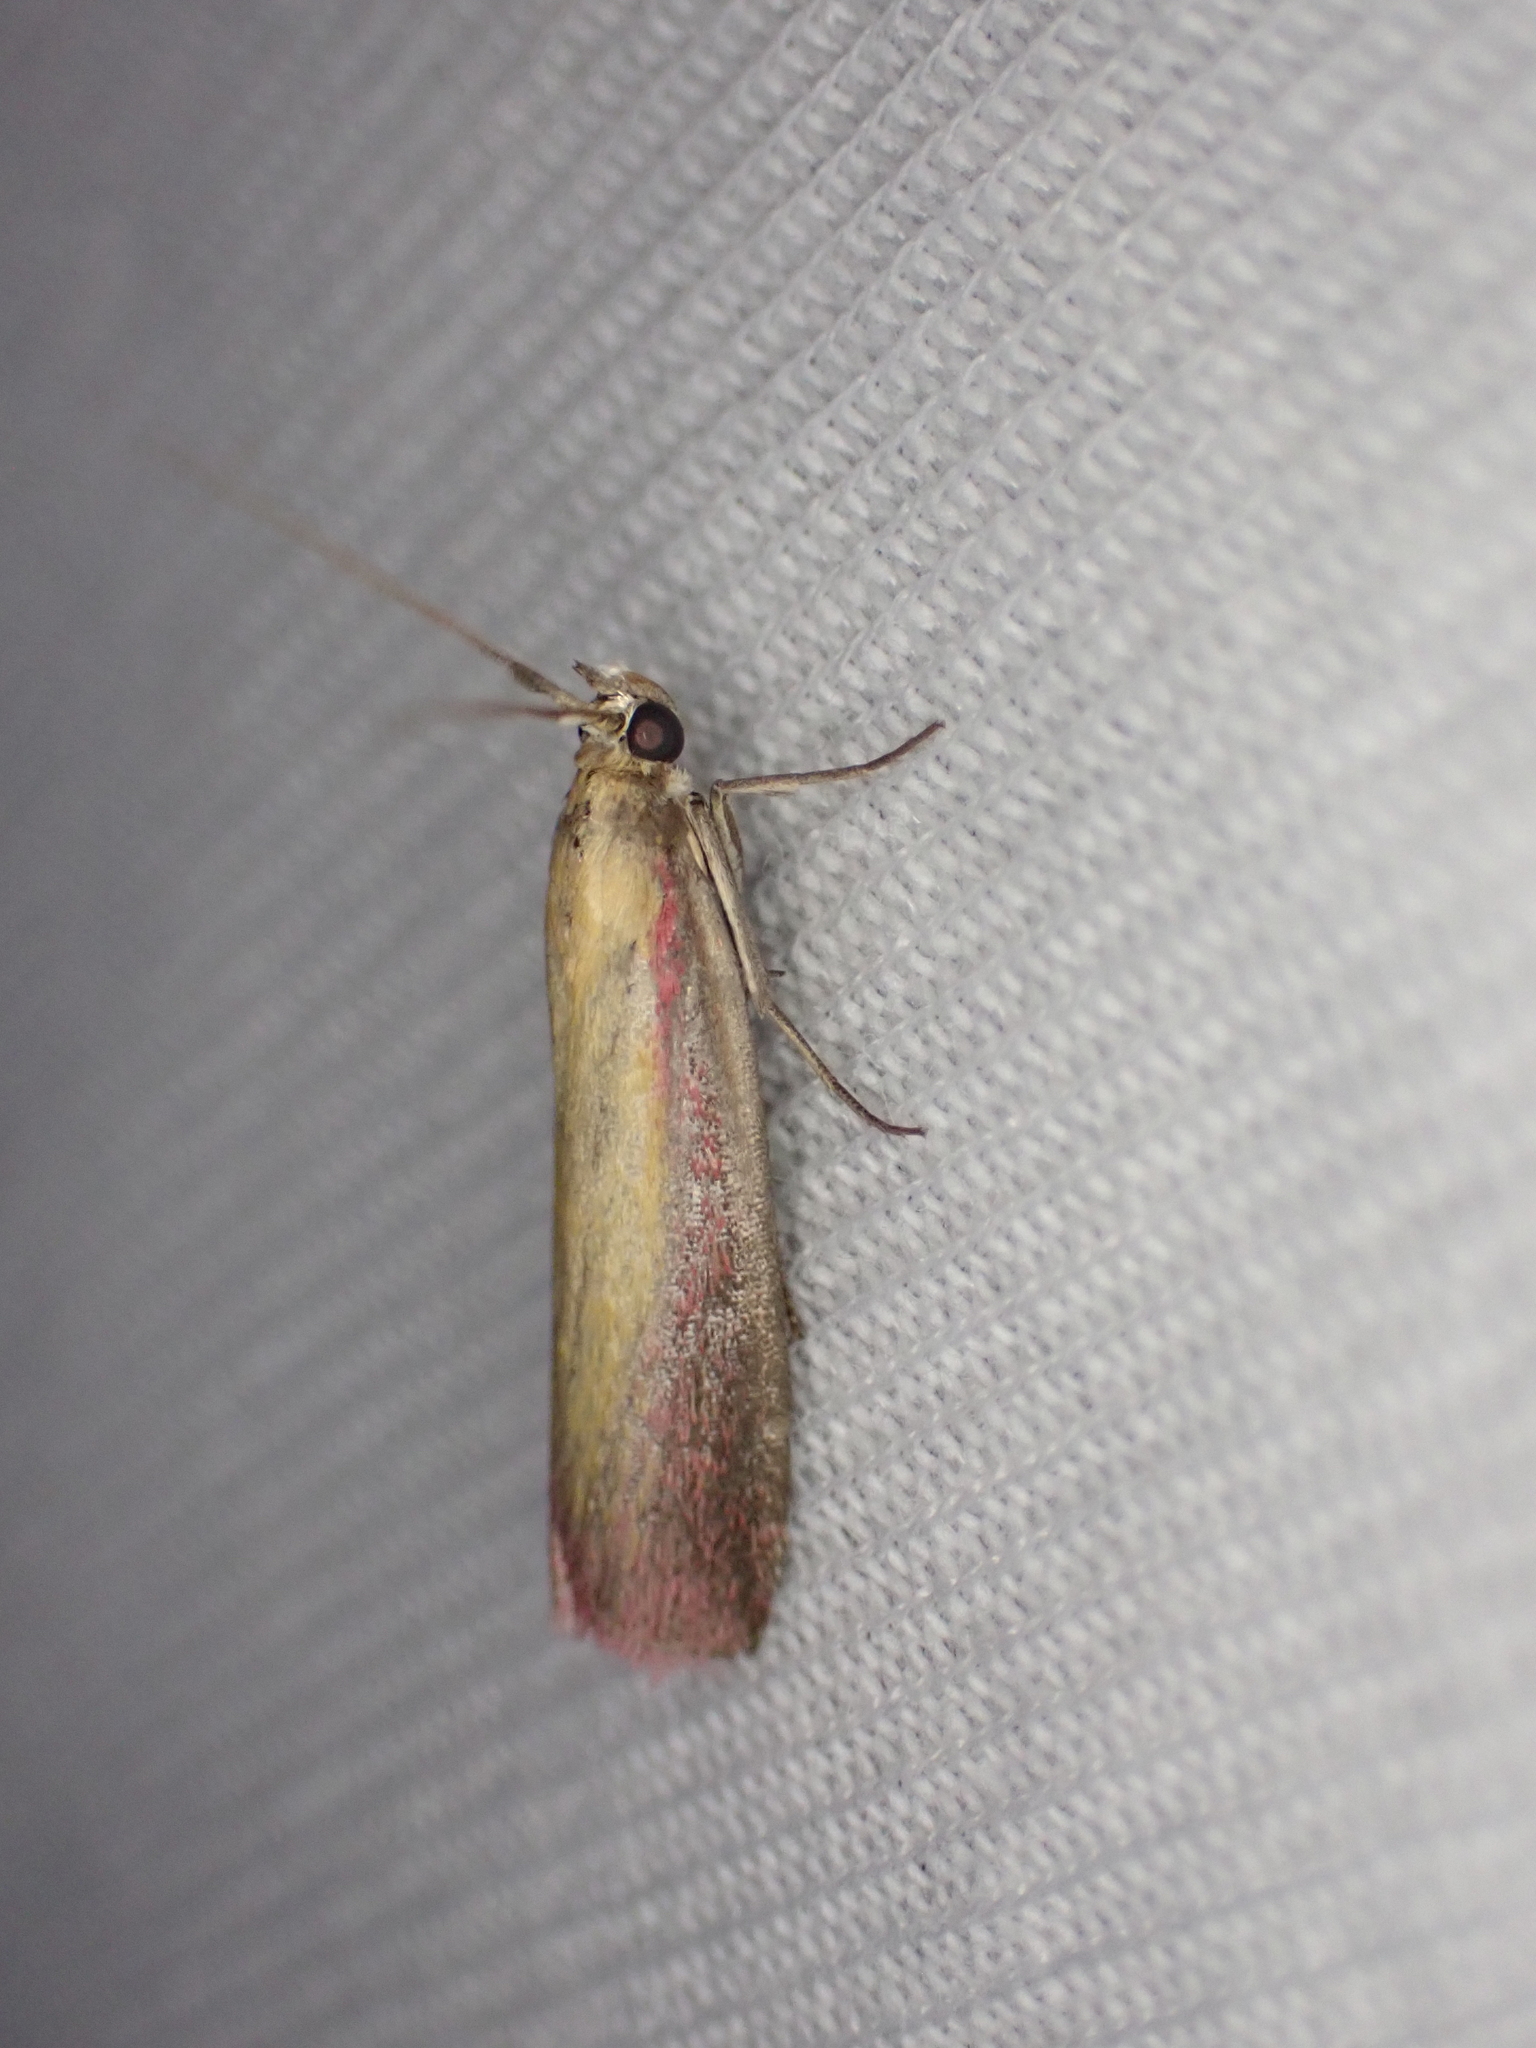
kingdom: Animalia
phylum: Arthropoda
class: Insecta
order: Lepidoptera
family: Pyralidae
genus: Oncocera
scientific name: Oncocera semirubella
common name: Rosy-striped knot-horn
